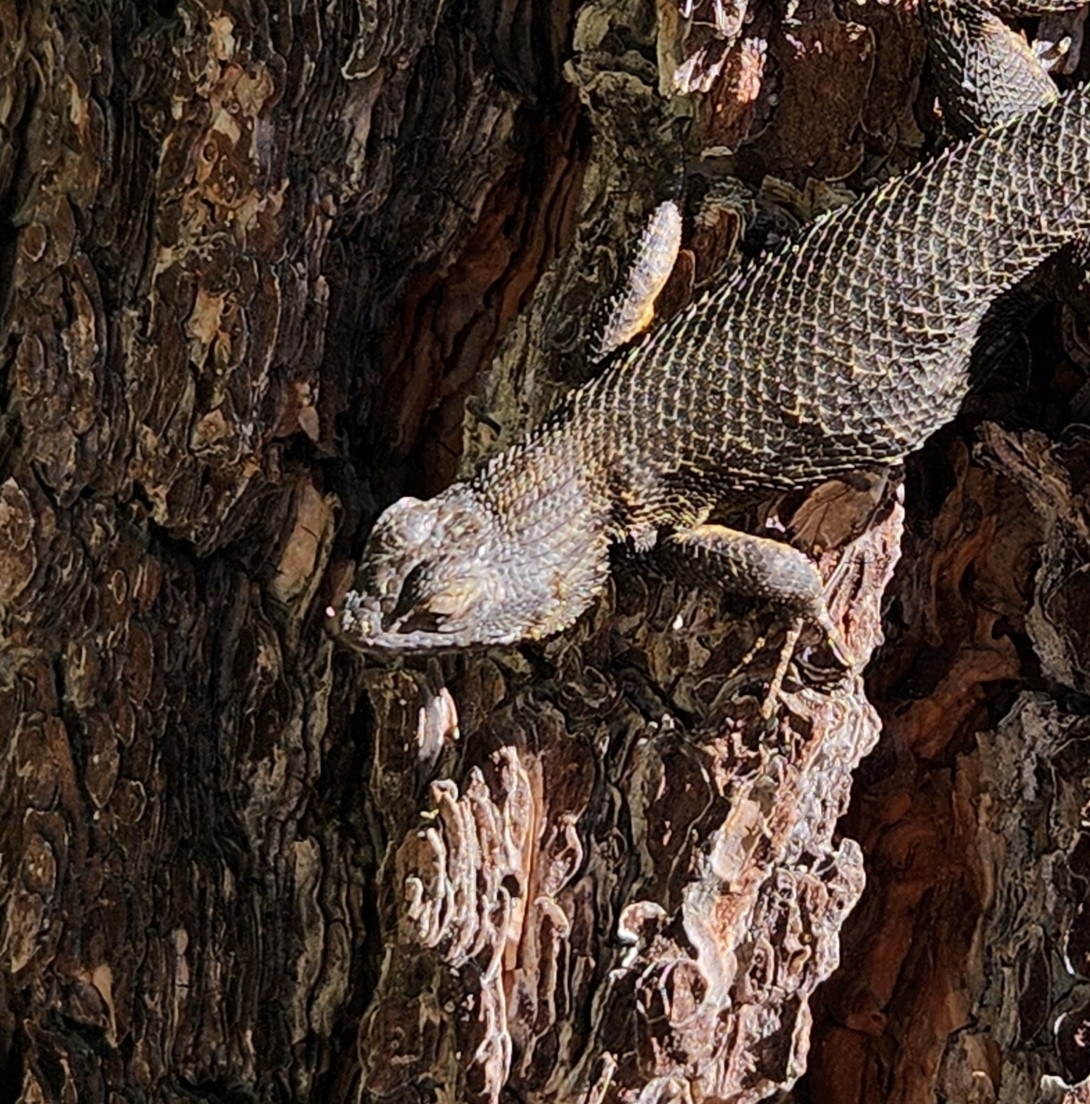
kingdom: Animalia
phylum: Chordata
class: Squamata
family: Phrynosomatidae
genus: Sceloporus
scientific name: Sceloporus occidentalis
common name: Western fence lizard
